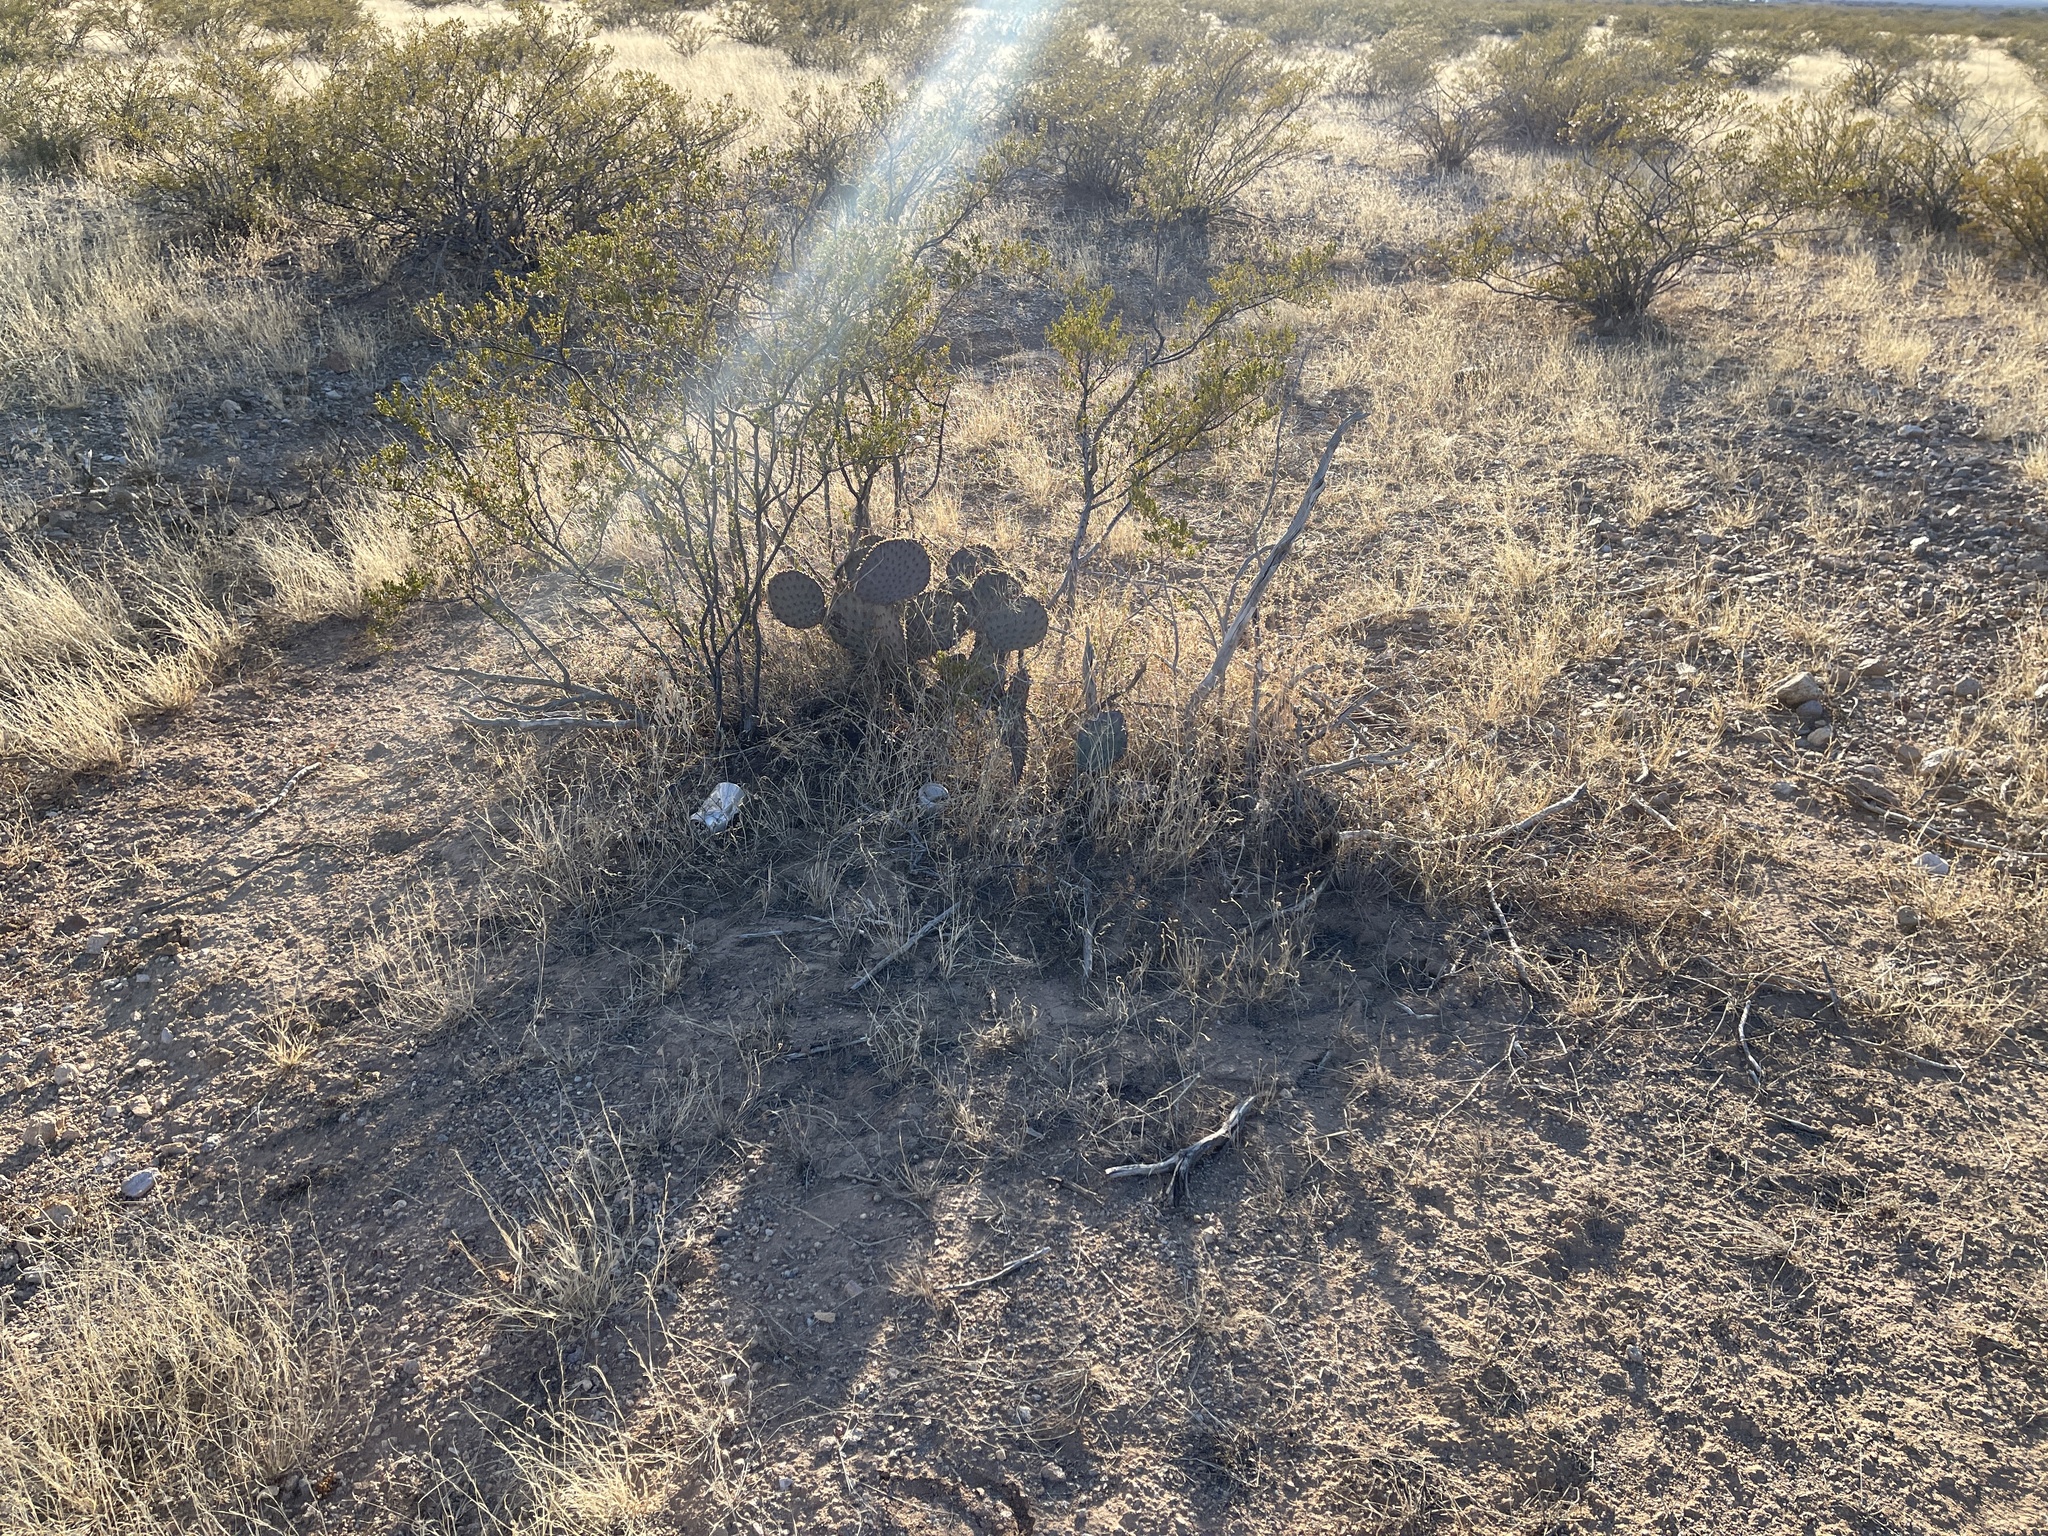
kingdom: Plantae
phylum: Tracheophyta
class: Magnoliopsida
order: Caryophyllales
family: Cactaceae
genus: Opuntia
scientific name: Opuntia macrocentra
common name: Purple prickly-pear
